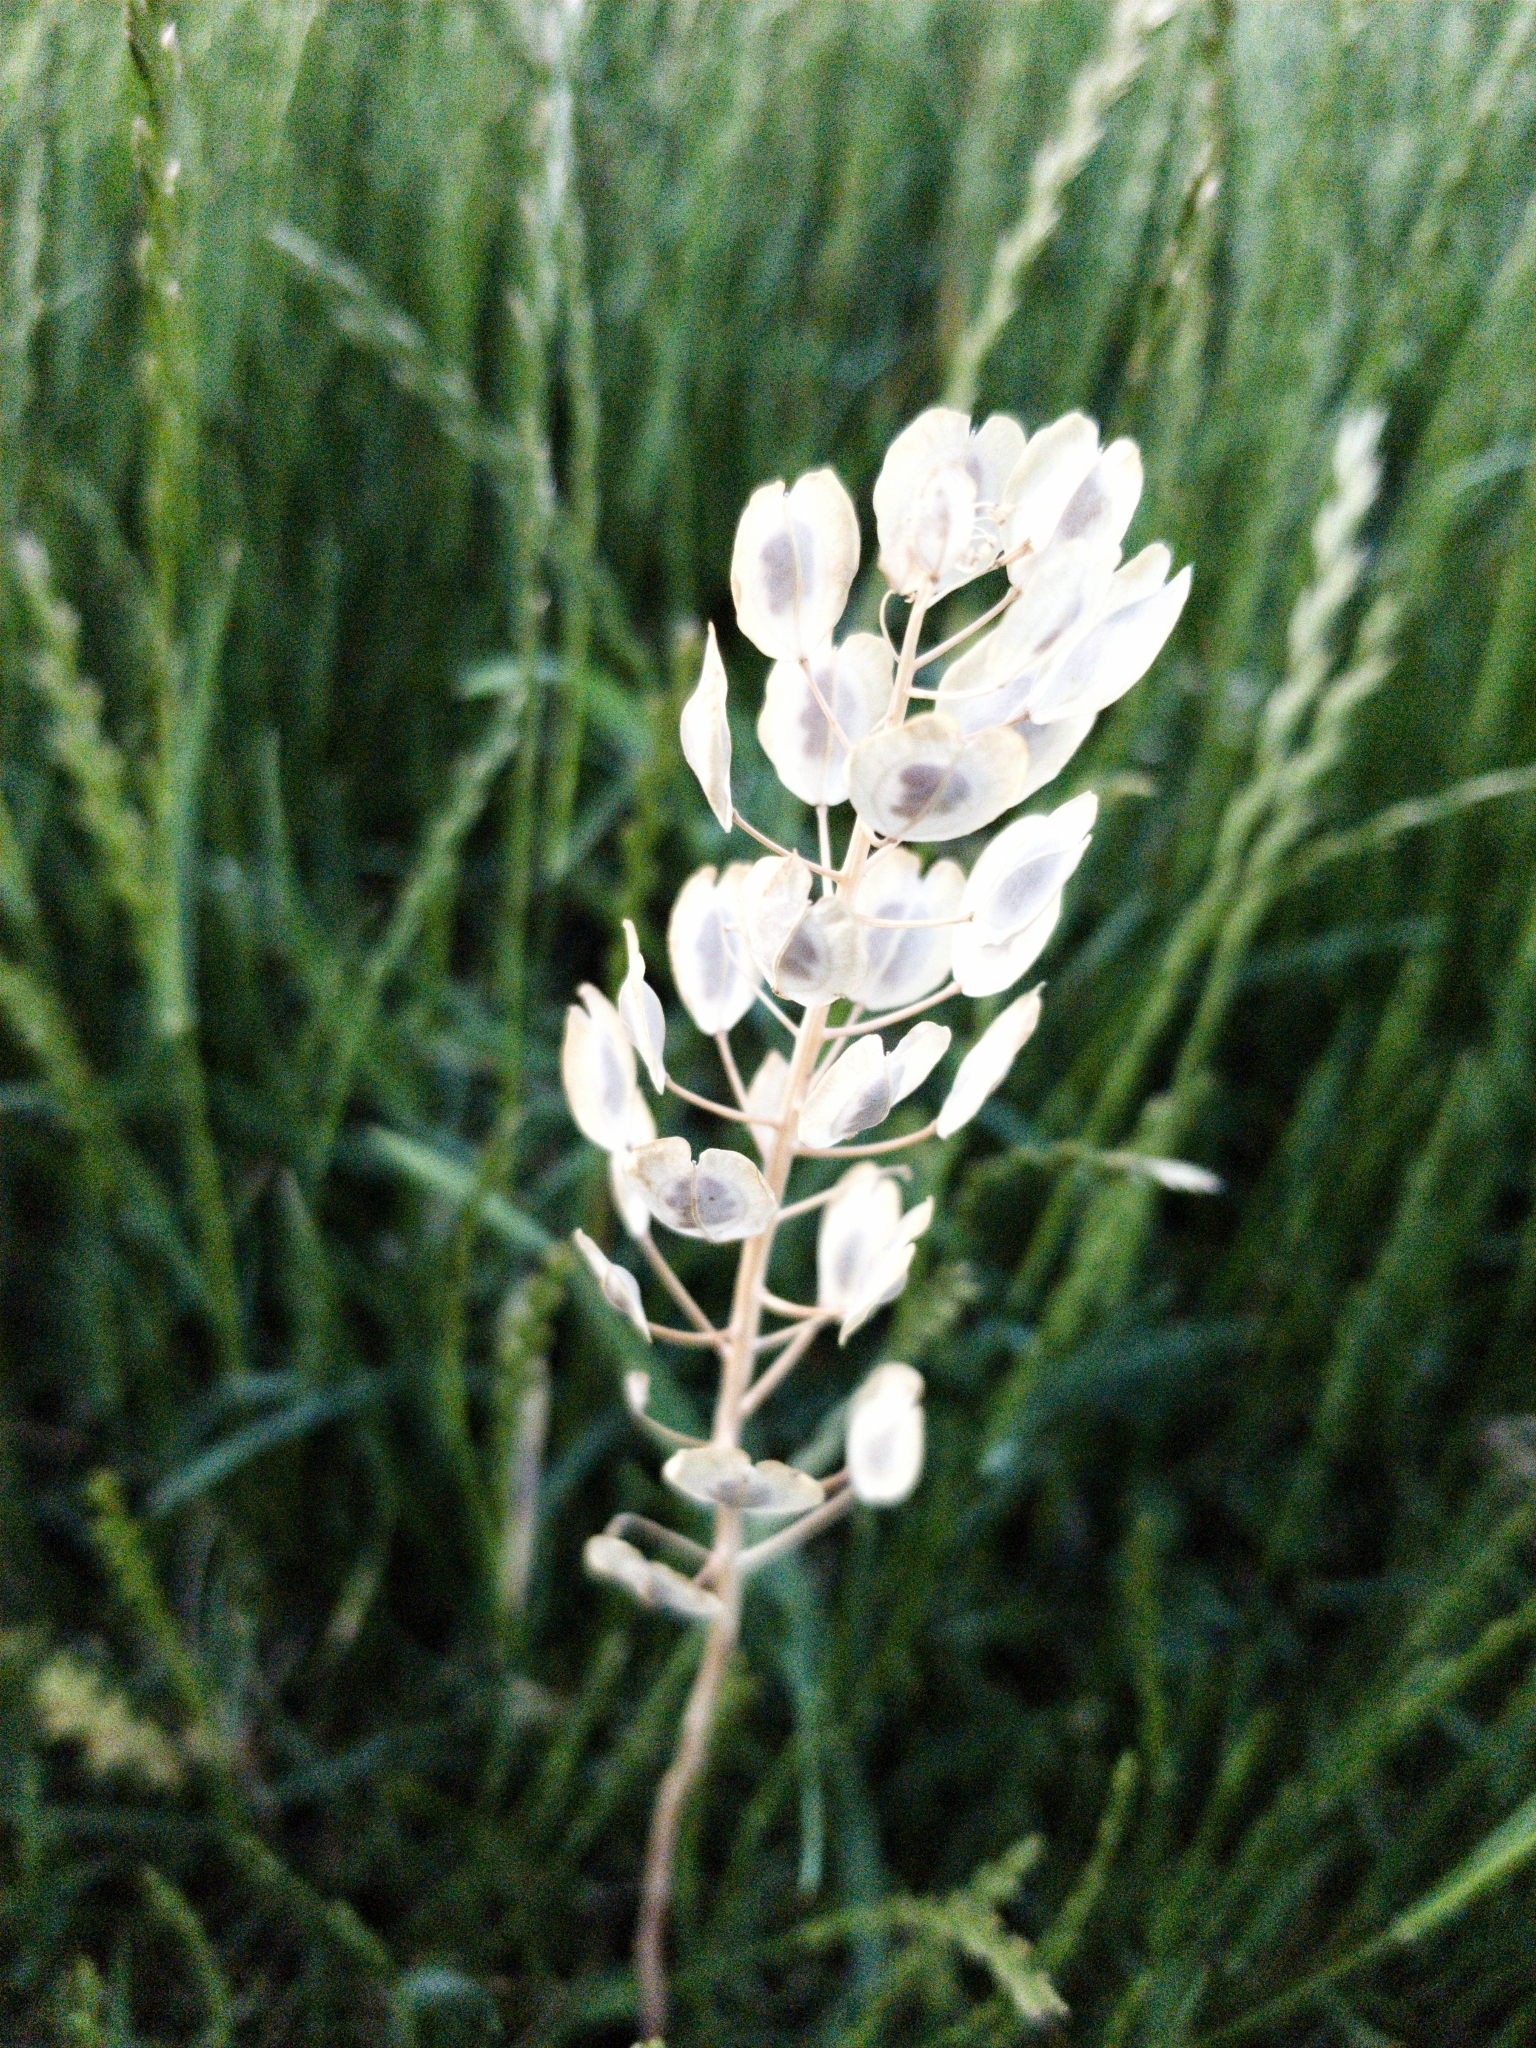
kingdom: Plantae
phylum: Tracheophyta
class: Magnoliopsida
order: Brassicales
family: Brassicaceae
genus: Thlaspi
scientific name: Thlaspi arvense
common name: Field pennycress
